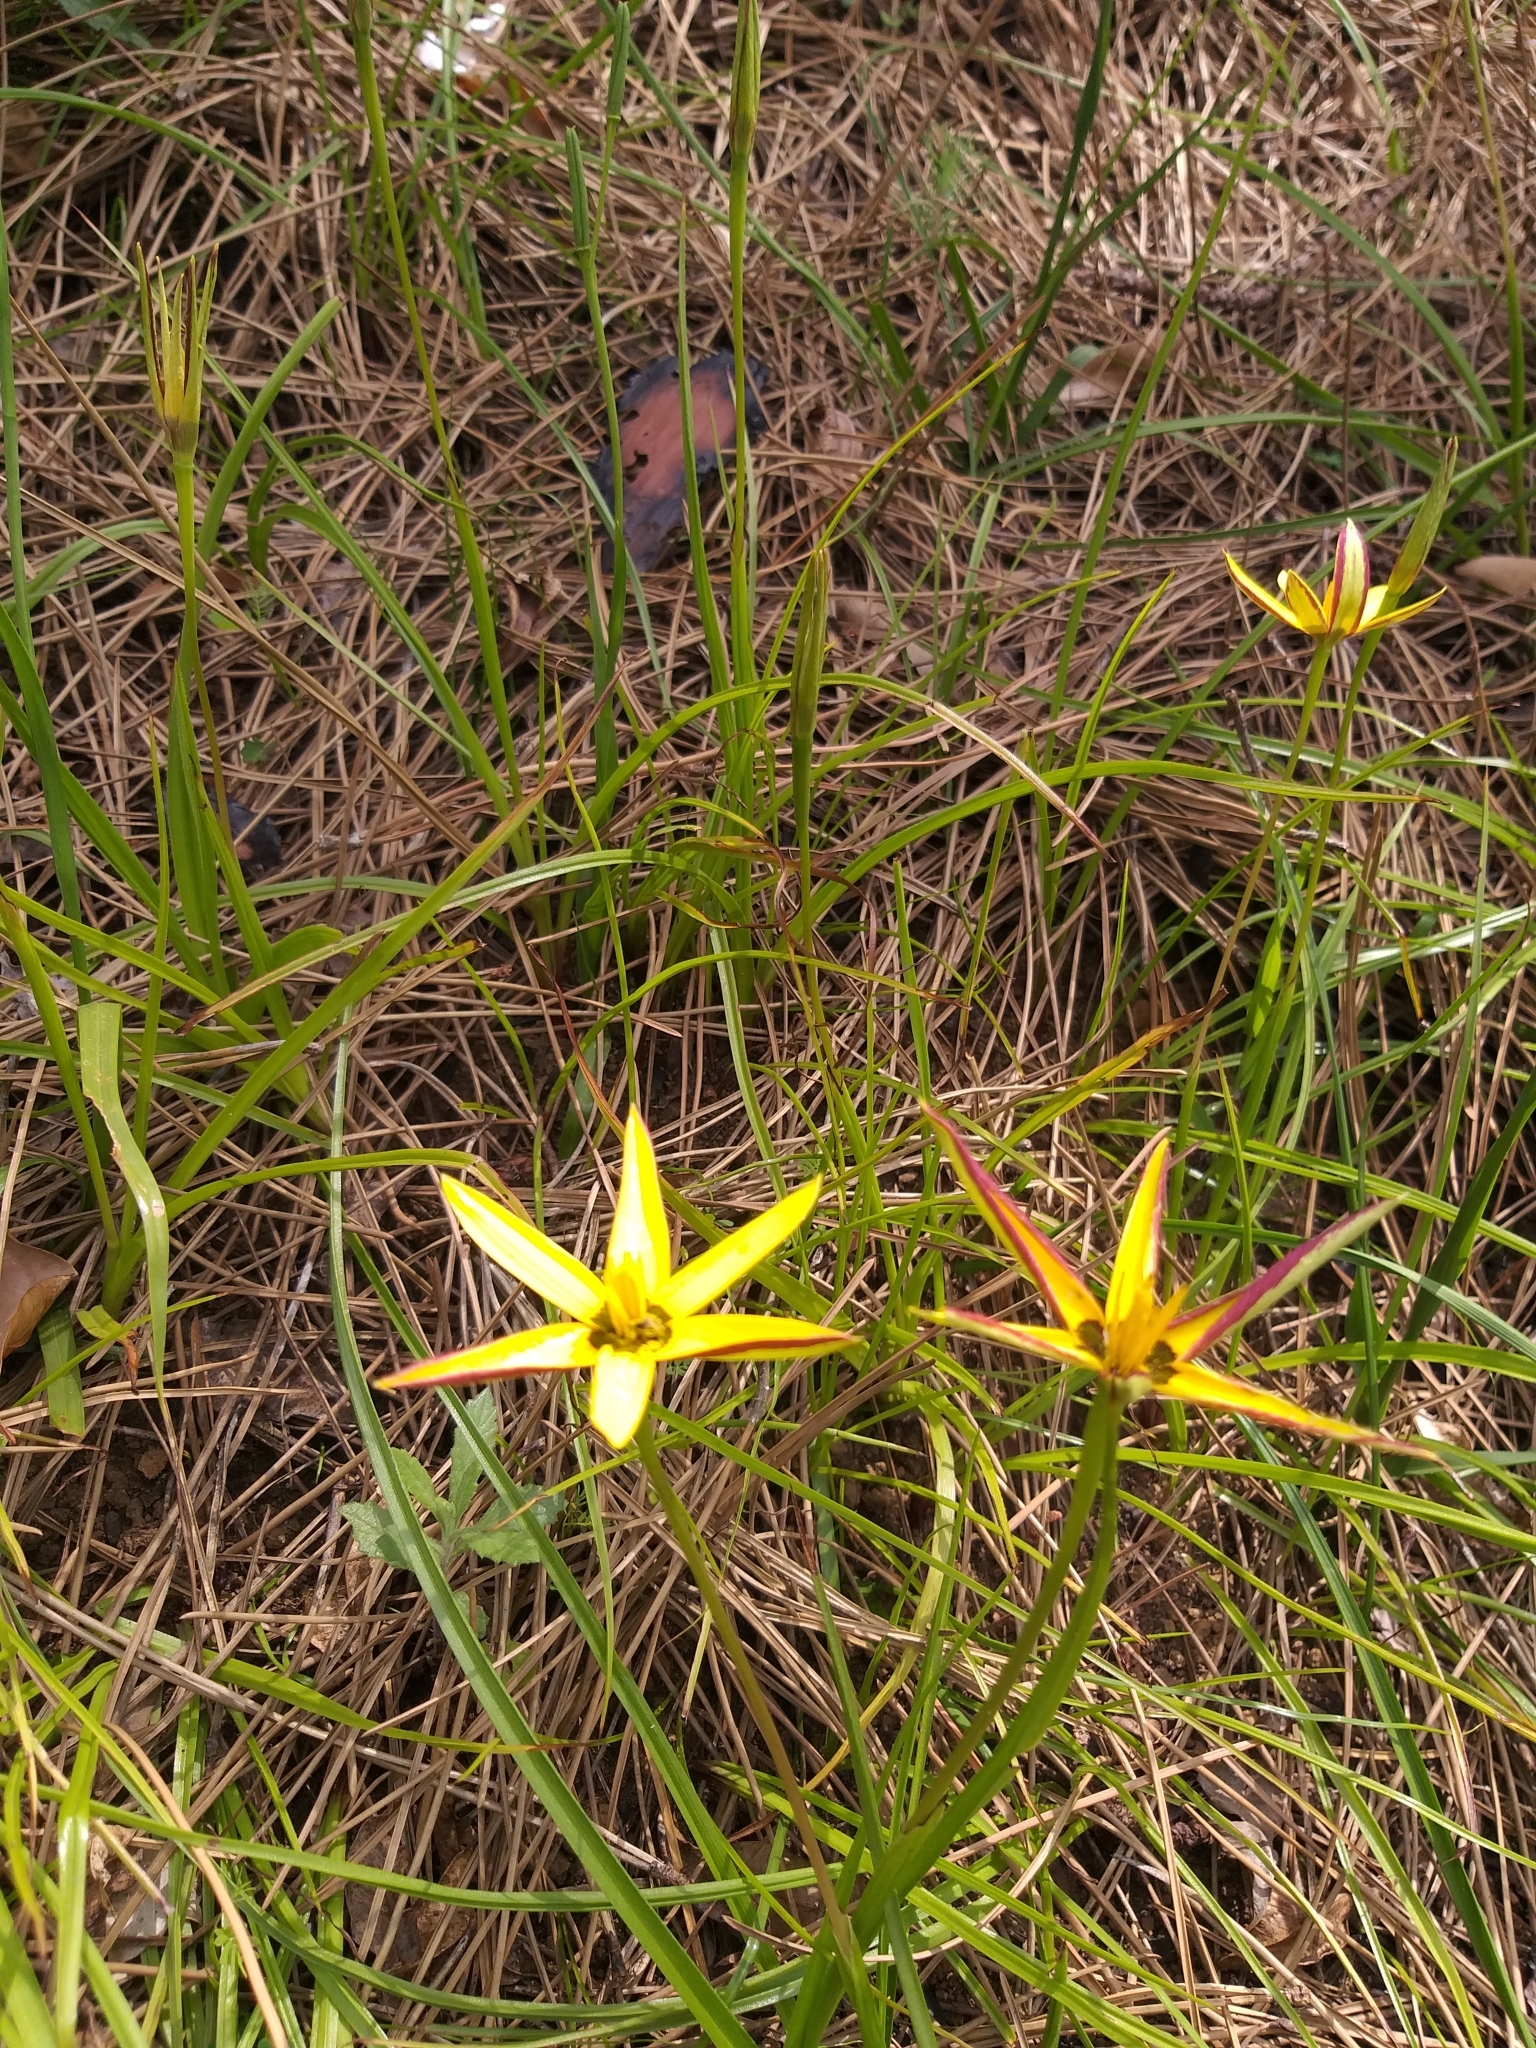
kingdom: Plantae
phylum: Tracheophyta
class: Liliopsida
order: Asparagales
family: Hypoxidaceae
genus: Pauridia
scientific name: Pauridia capensis
